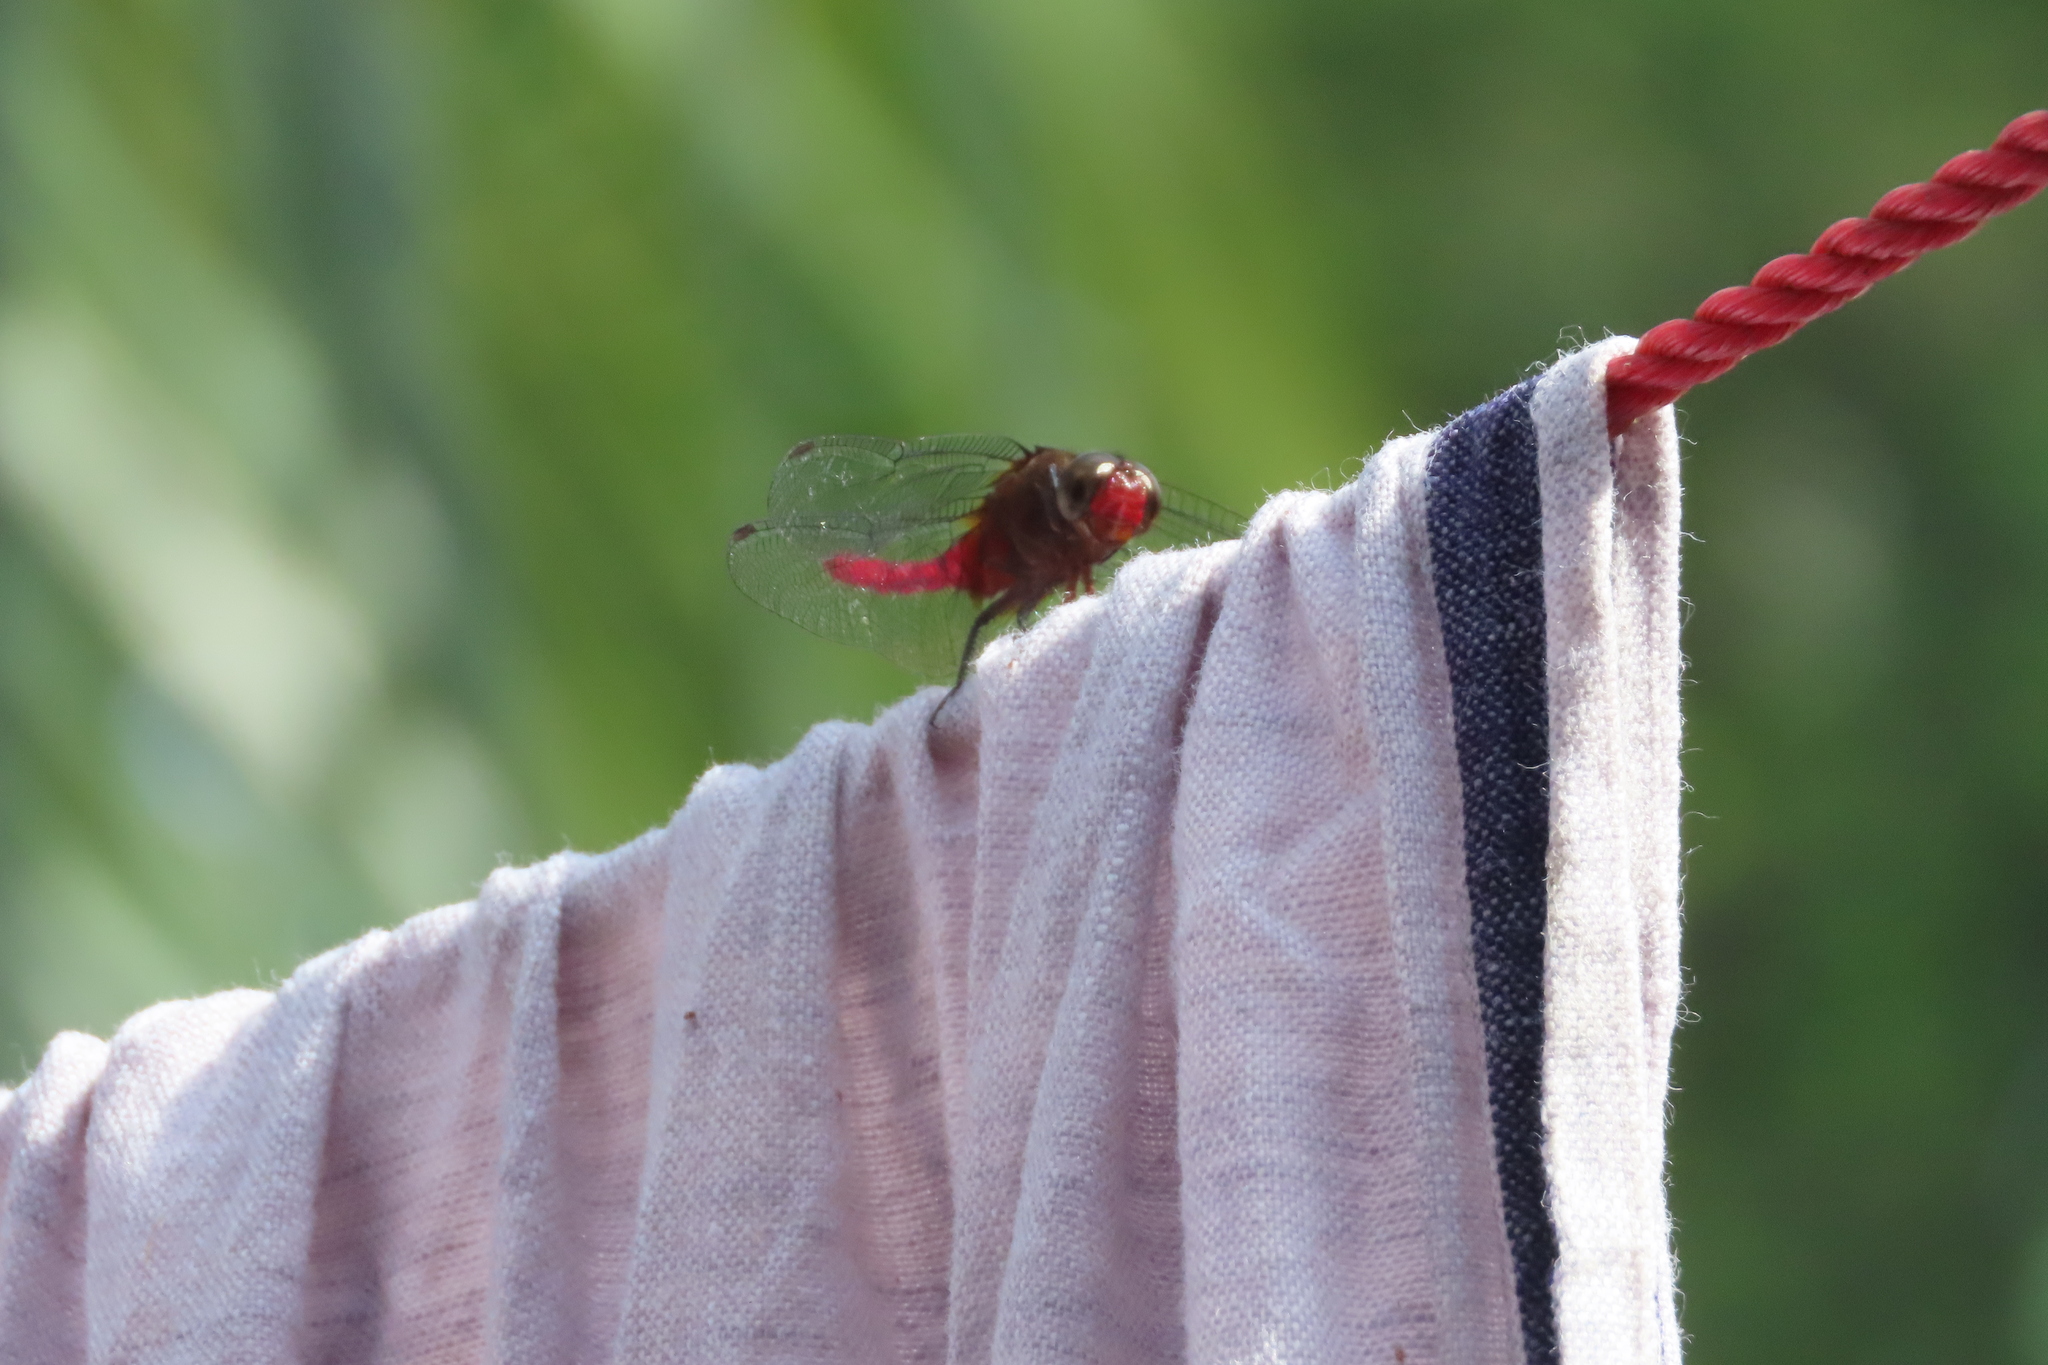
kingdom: Animalia
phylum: Arthropoda
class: Insecta
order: Odonata
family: Libellulidae
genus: Orthetrum
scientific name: Orthetrum chrysis
